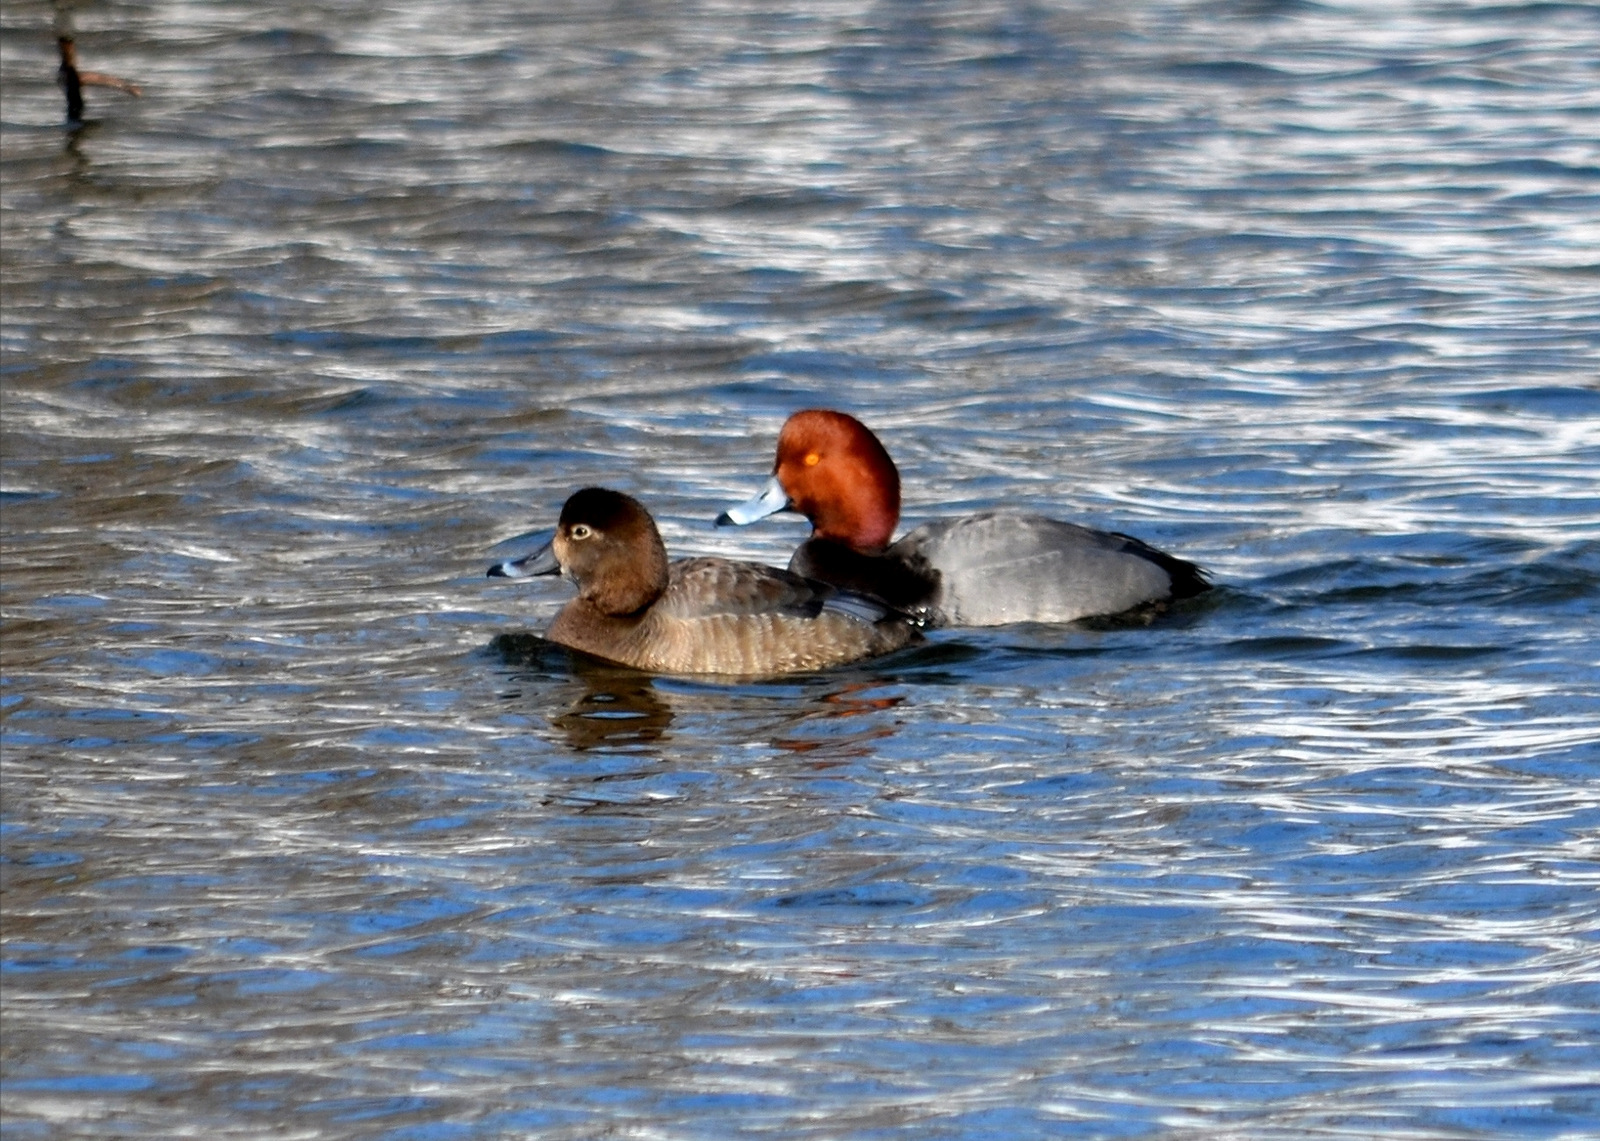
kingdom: Animalia
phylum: Chordata
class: Aves
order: Anseriformes
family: Anatidae
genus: Aythya
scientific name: Aythya americana
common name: Redhead
